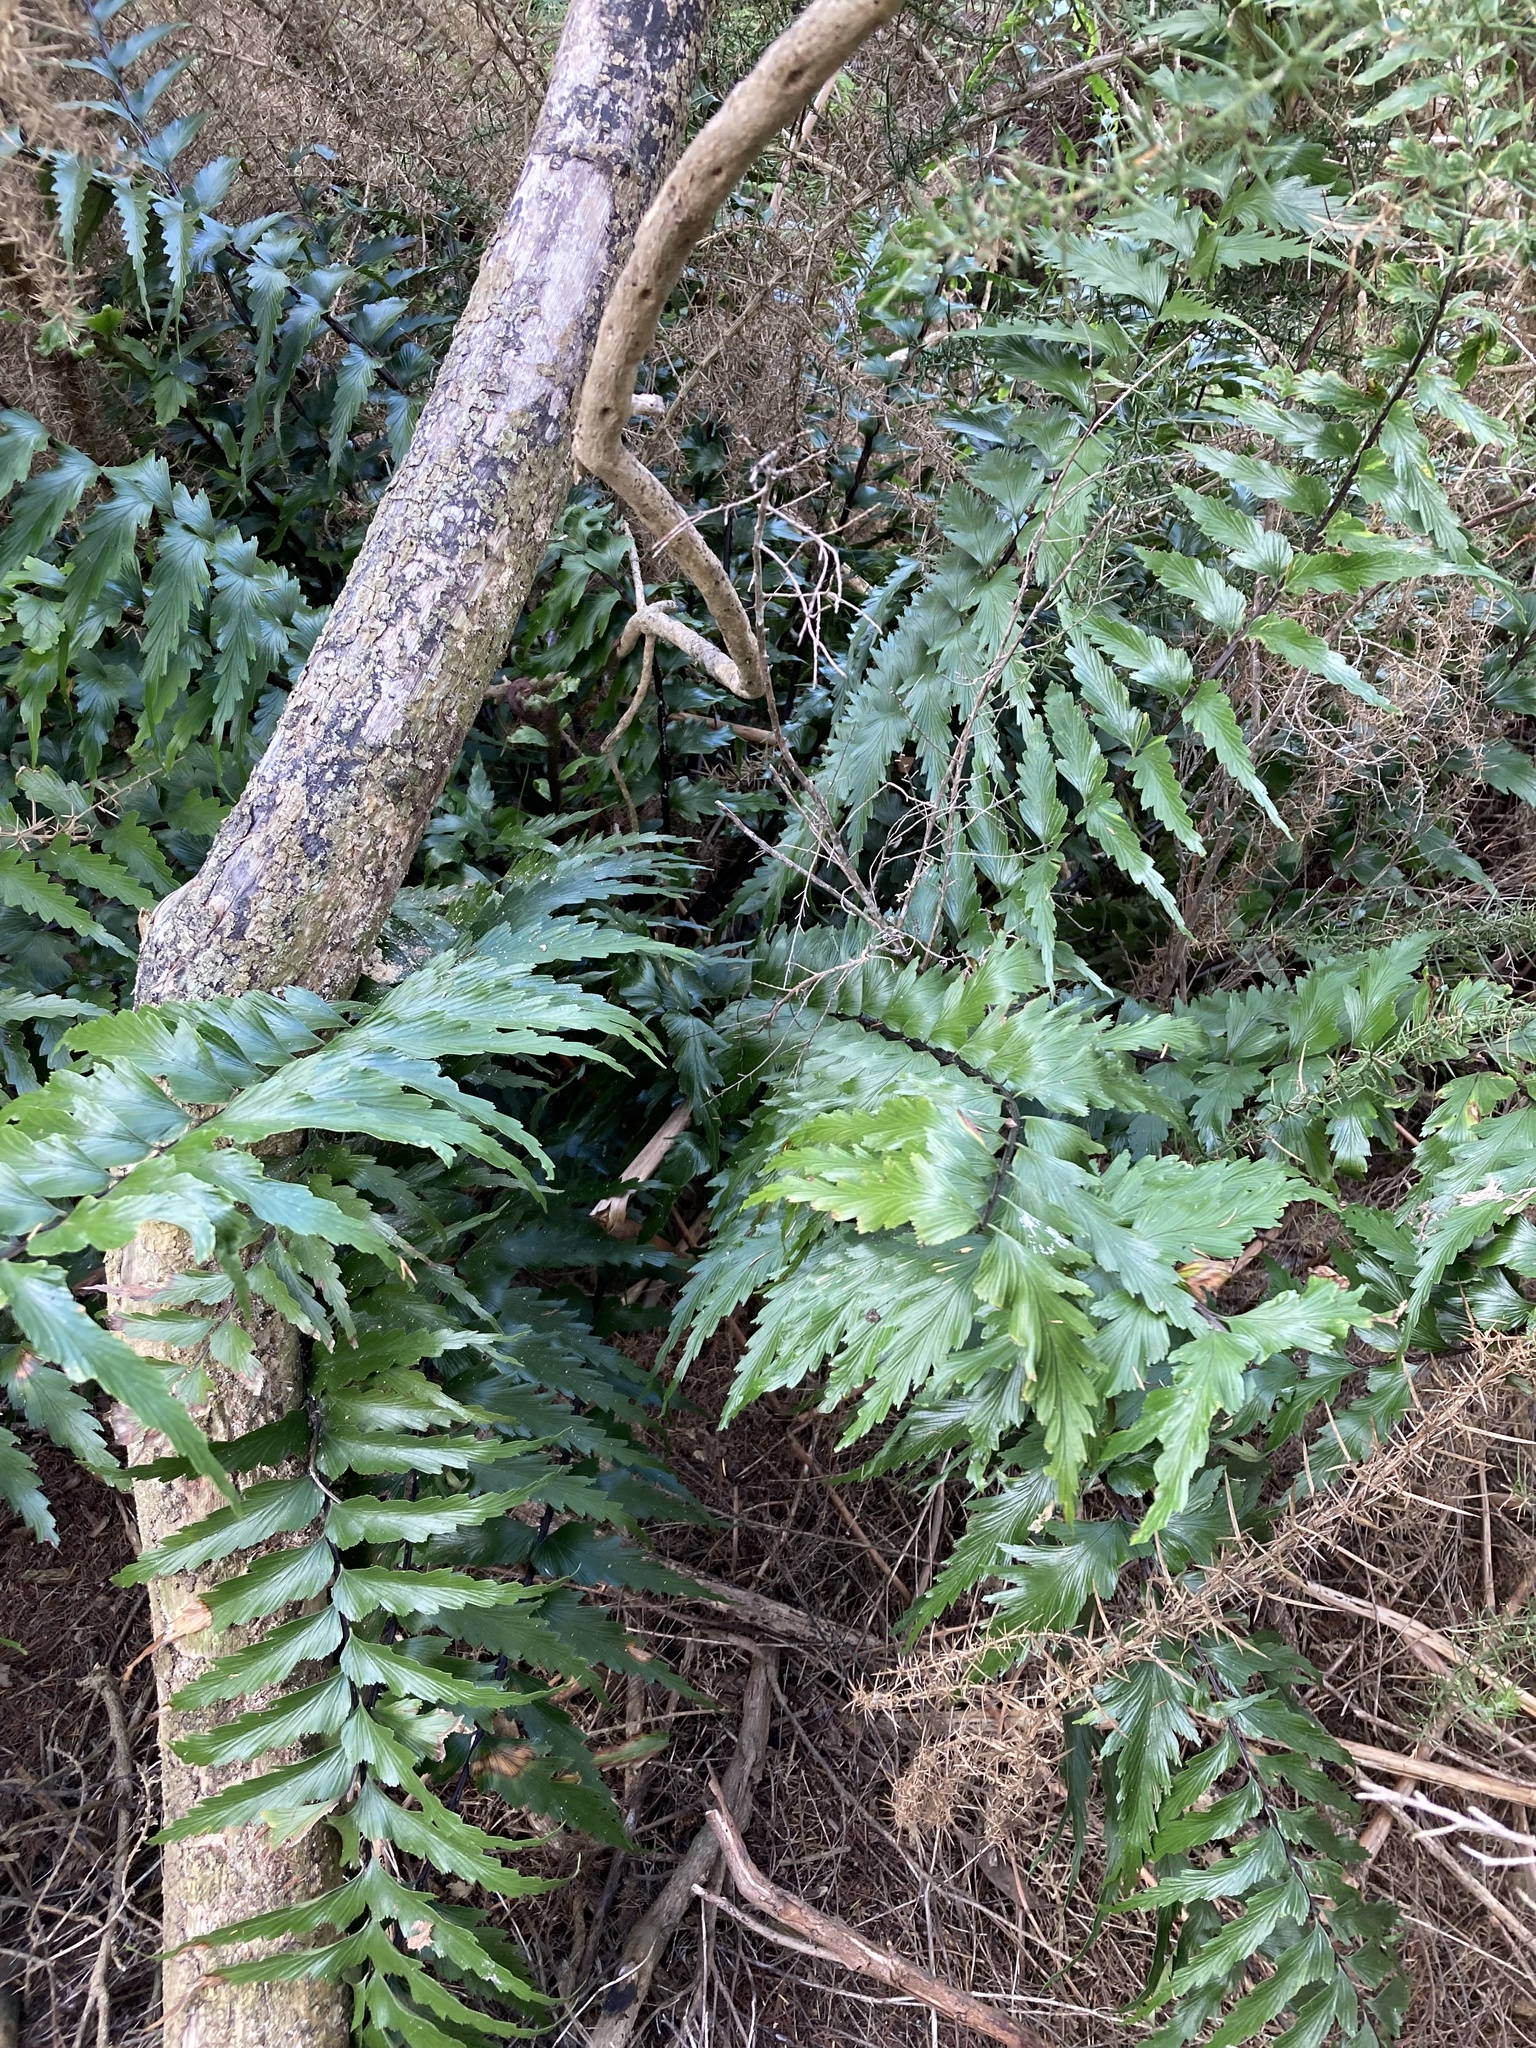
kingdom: Plantae
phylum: Tracheophyta
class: Polypodiopsida
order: Polypodiales
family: Aspleniaceae
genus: Asplenium
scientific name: Asplenium polyodon
